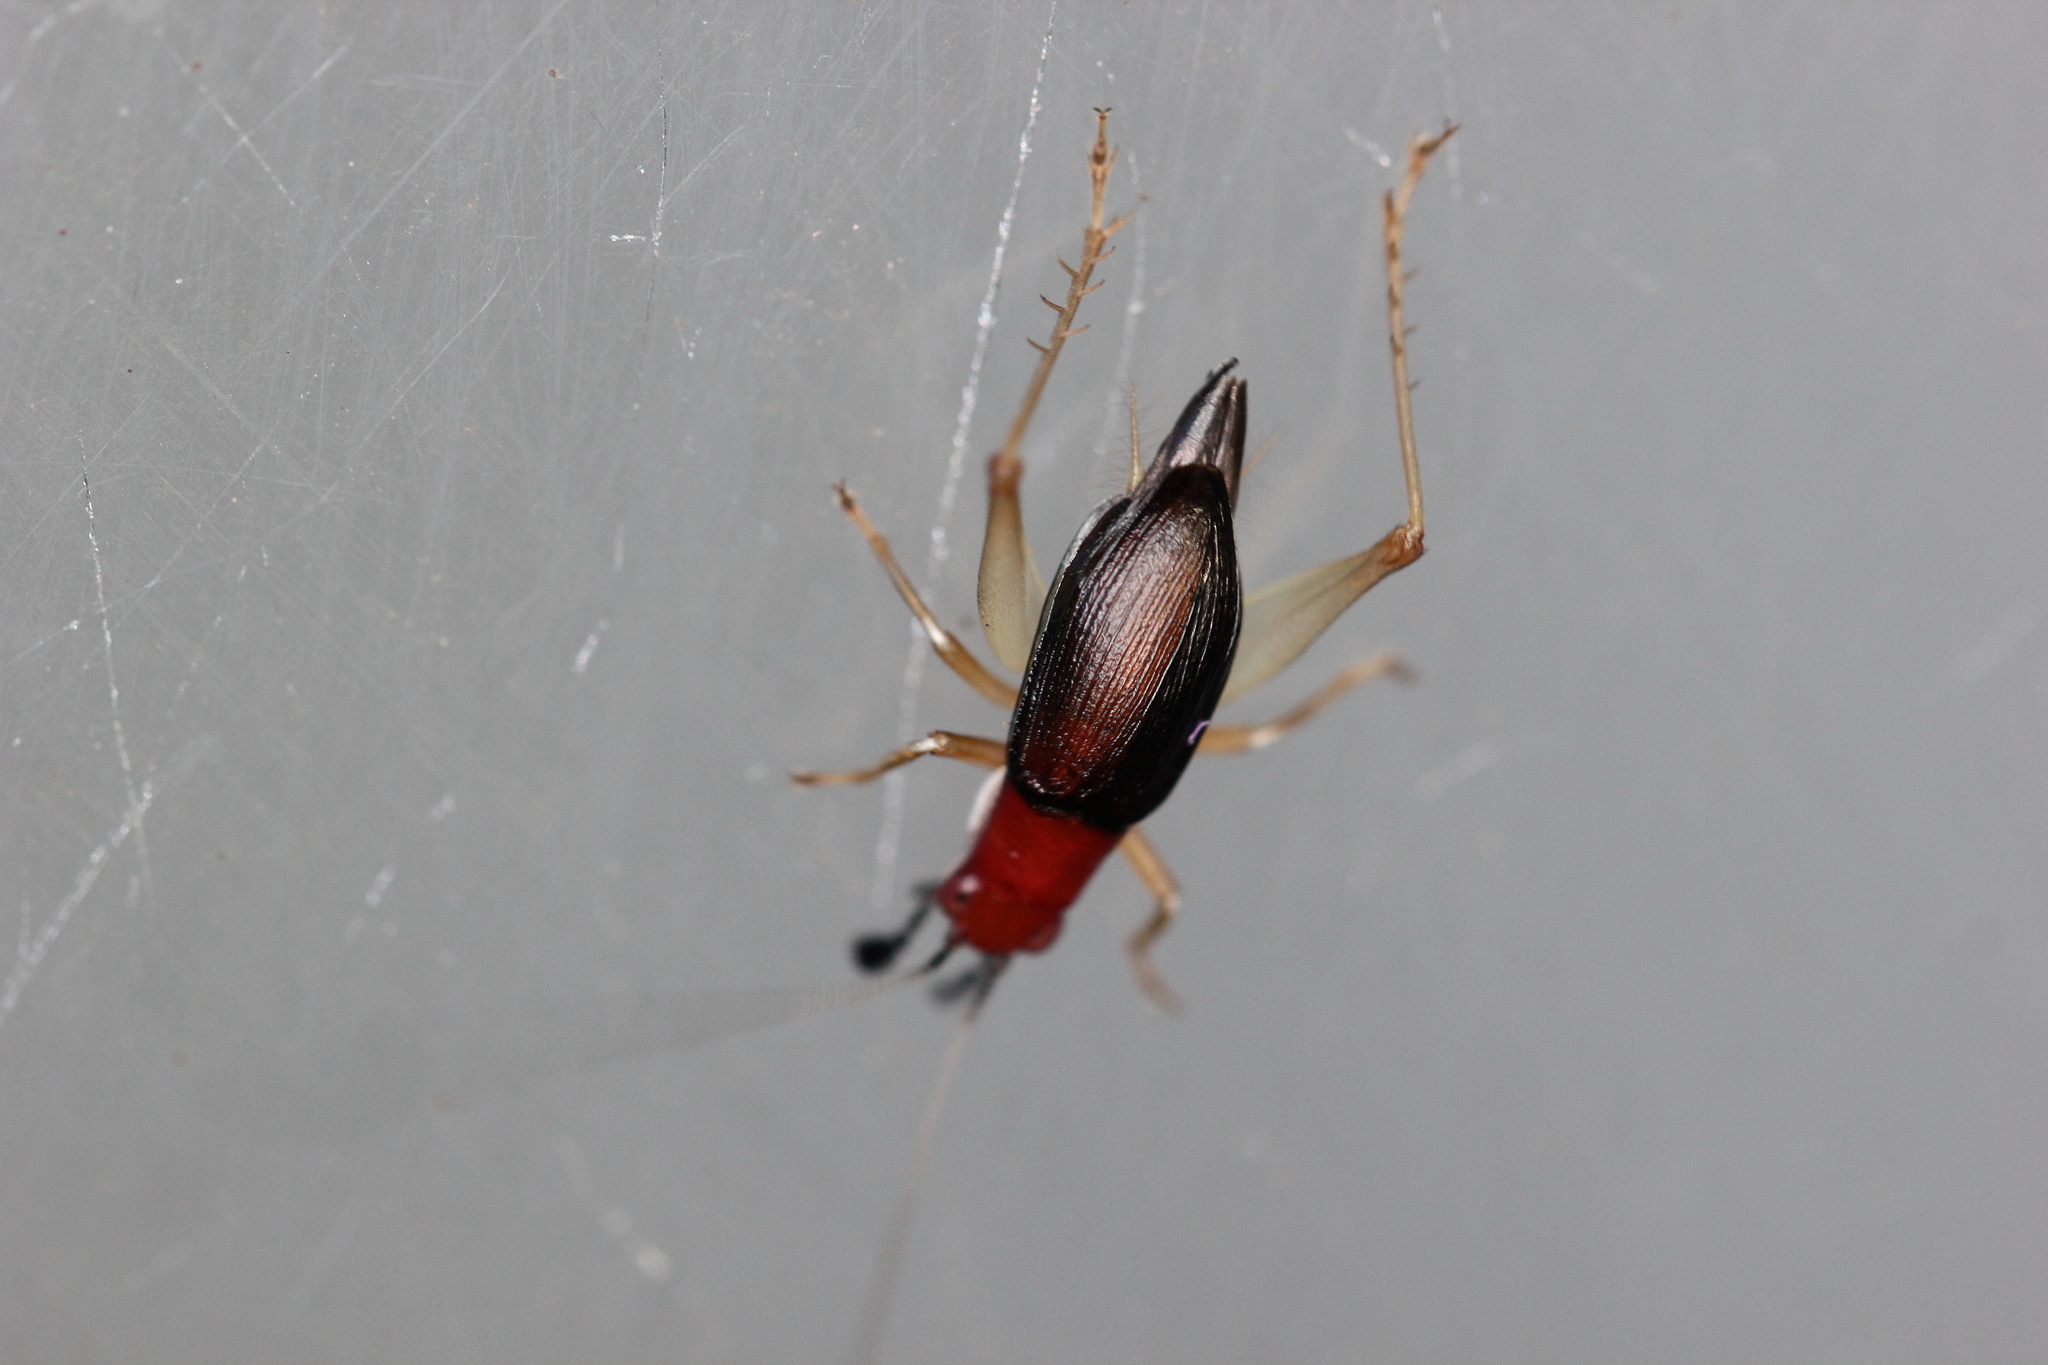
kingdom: Animalia
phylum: Arthropoda
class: Insecta
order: Orthoptera
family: Trigonidiidae
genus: Phyllopalpus
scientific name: Phyllopalpus pulchellus
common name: Handsome trig
